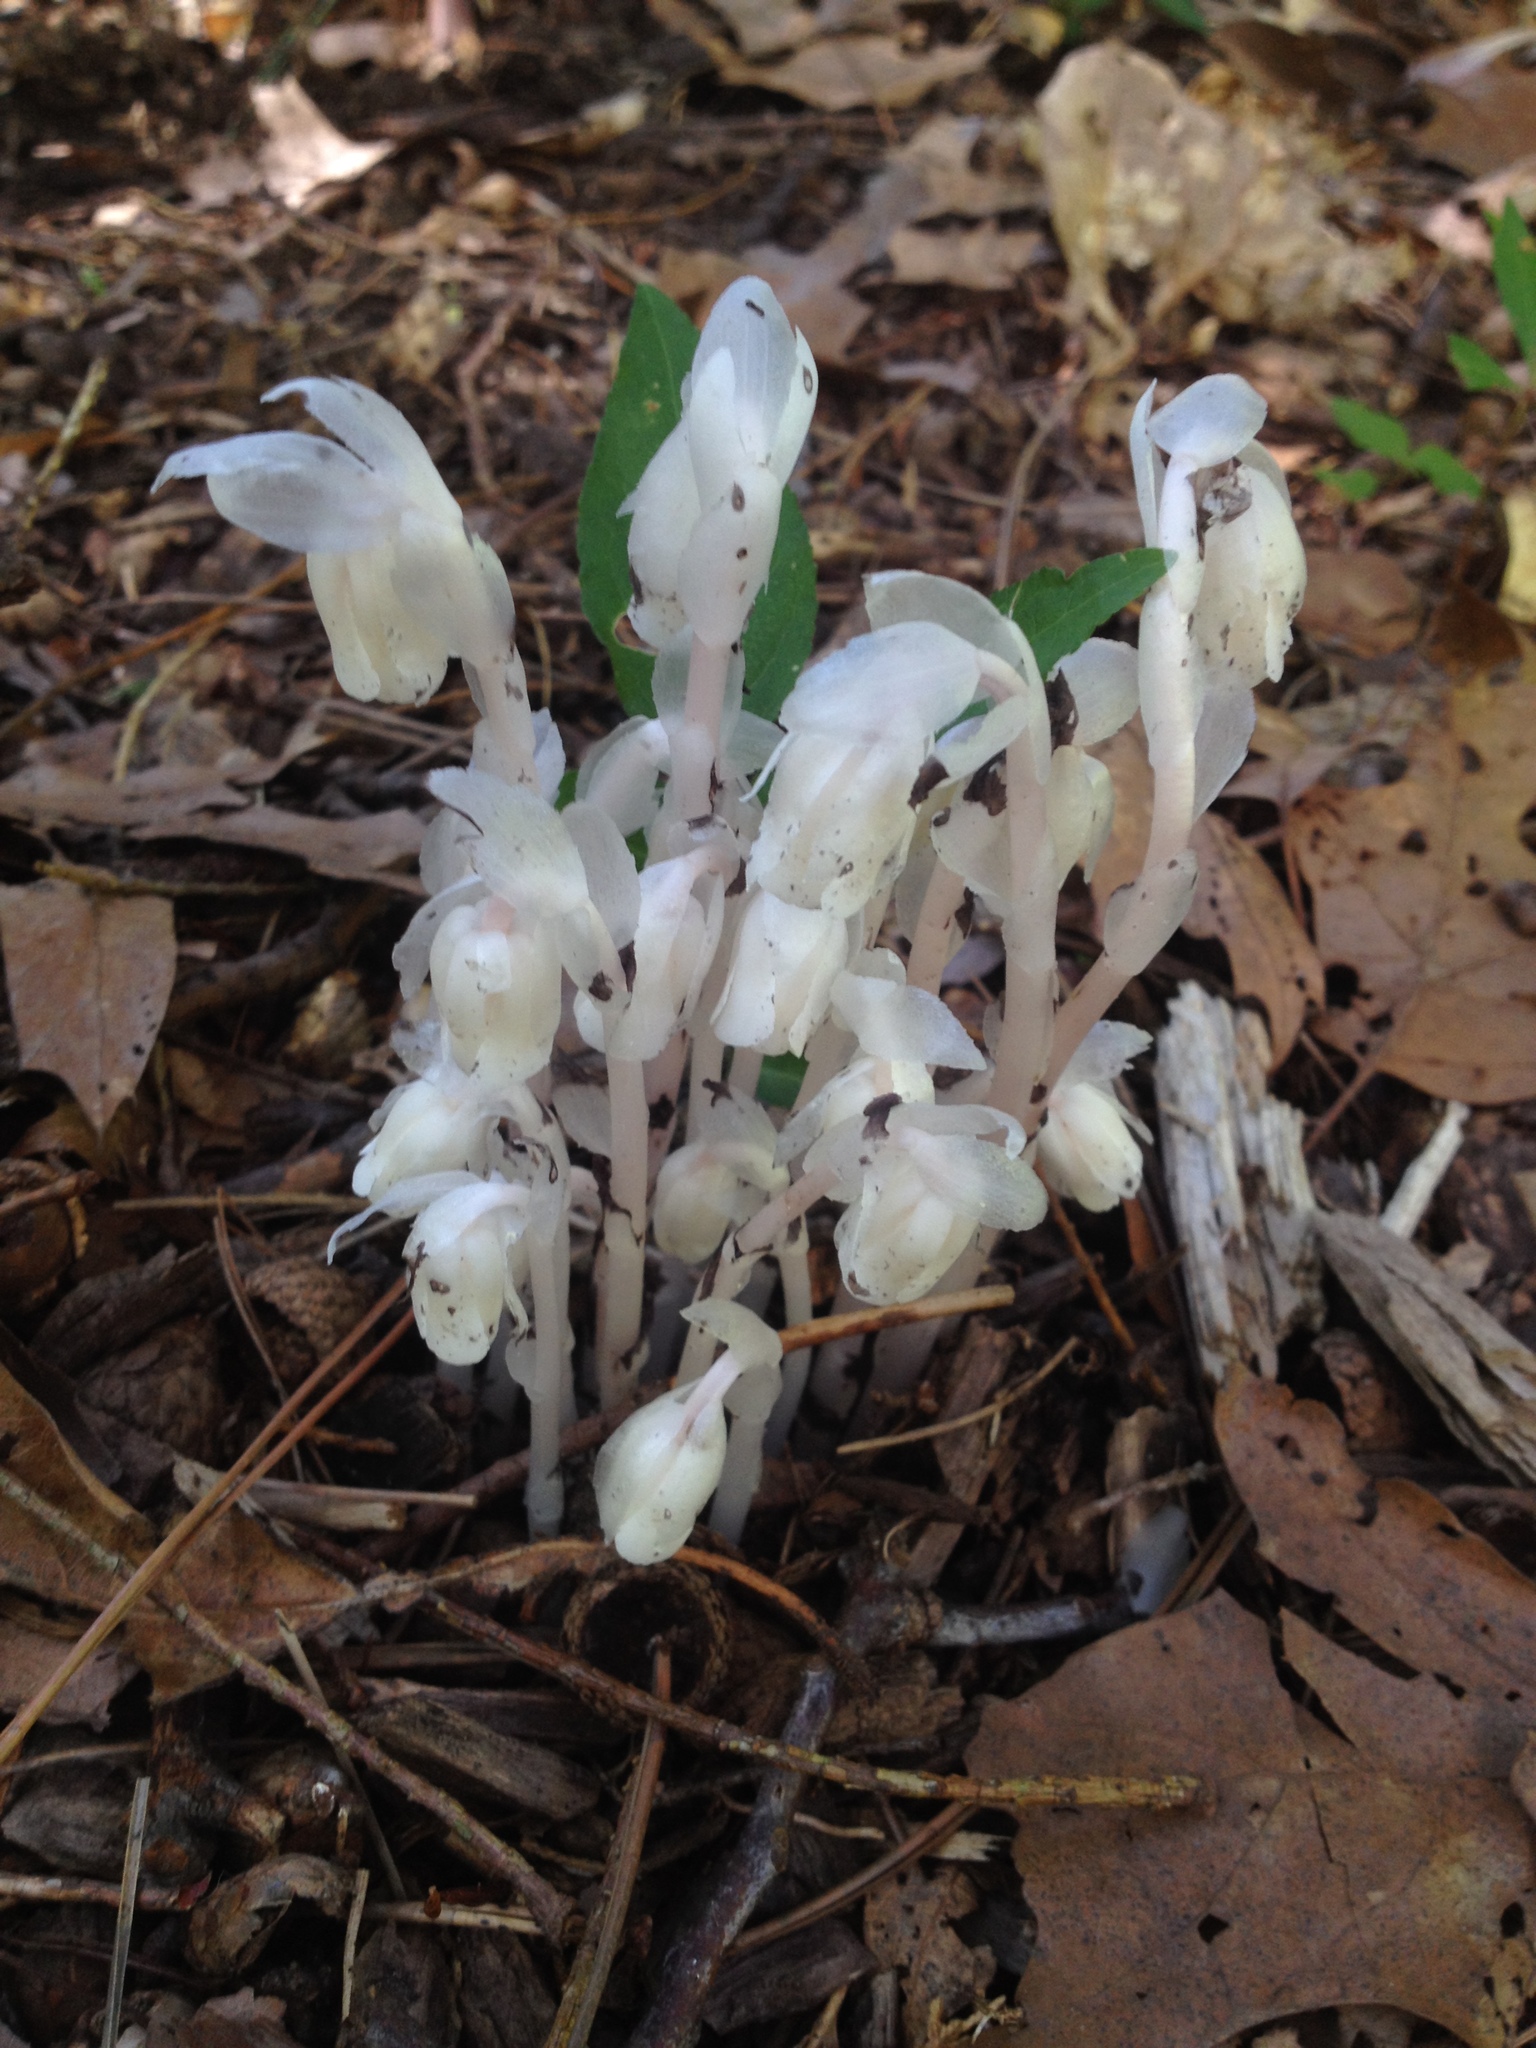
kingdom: Plantae
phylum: Tracheophyta
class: Magnoliopsida
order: Ericales
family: Ericaceae
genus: Monotropa
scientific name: Monotropa uniflora
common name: Convulsion root
